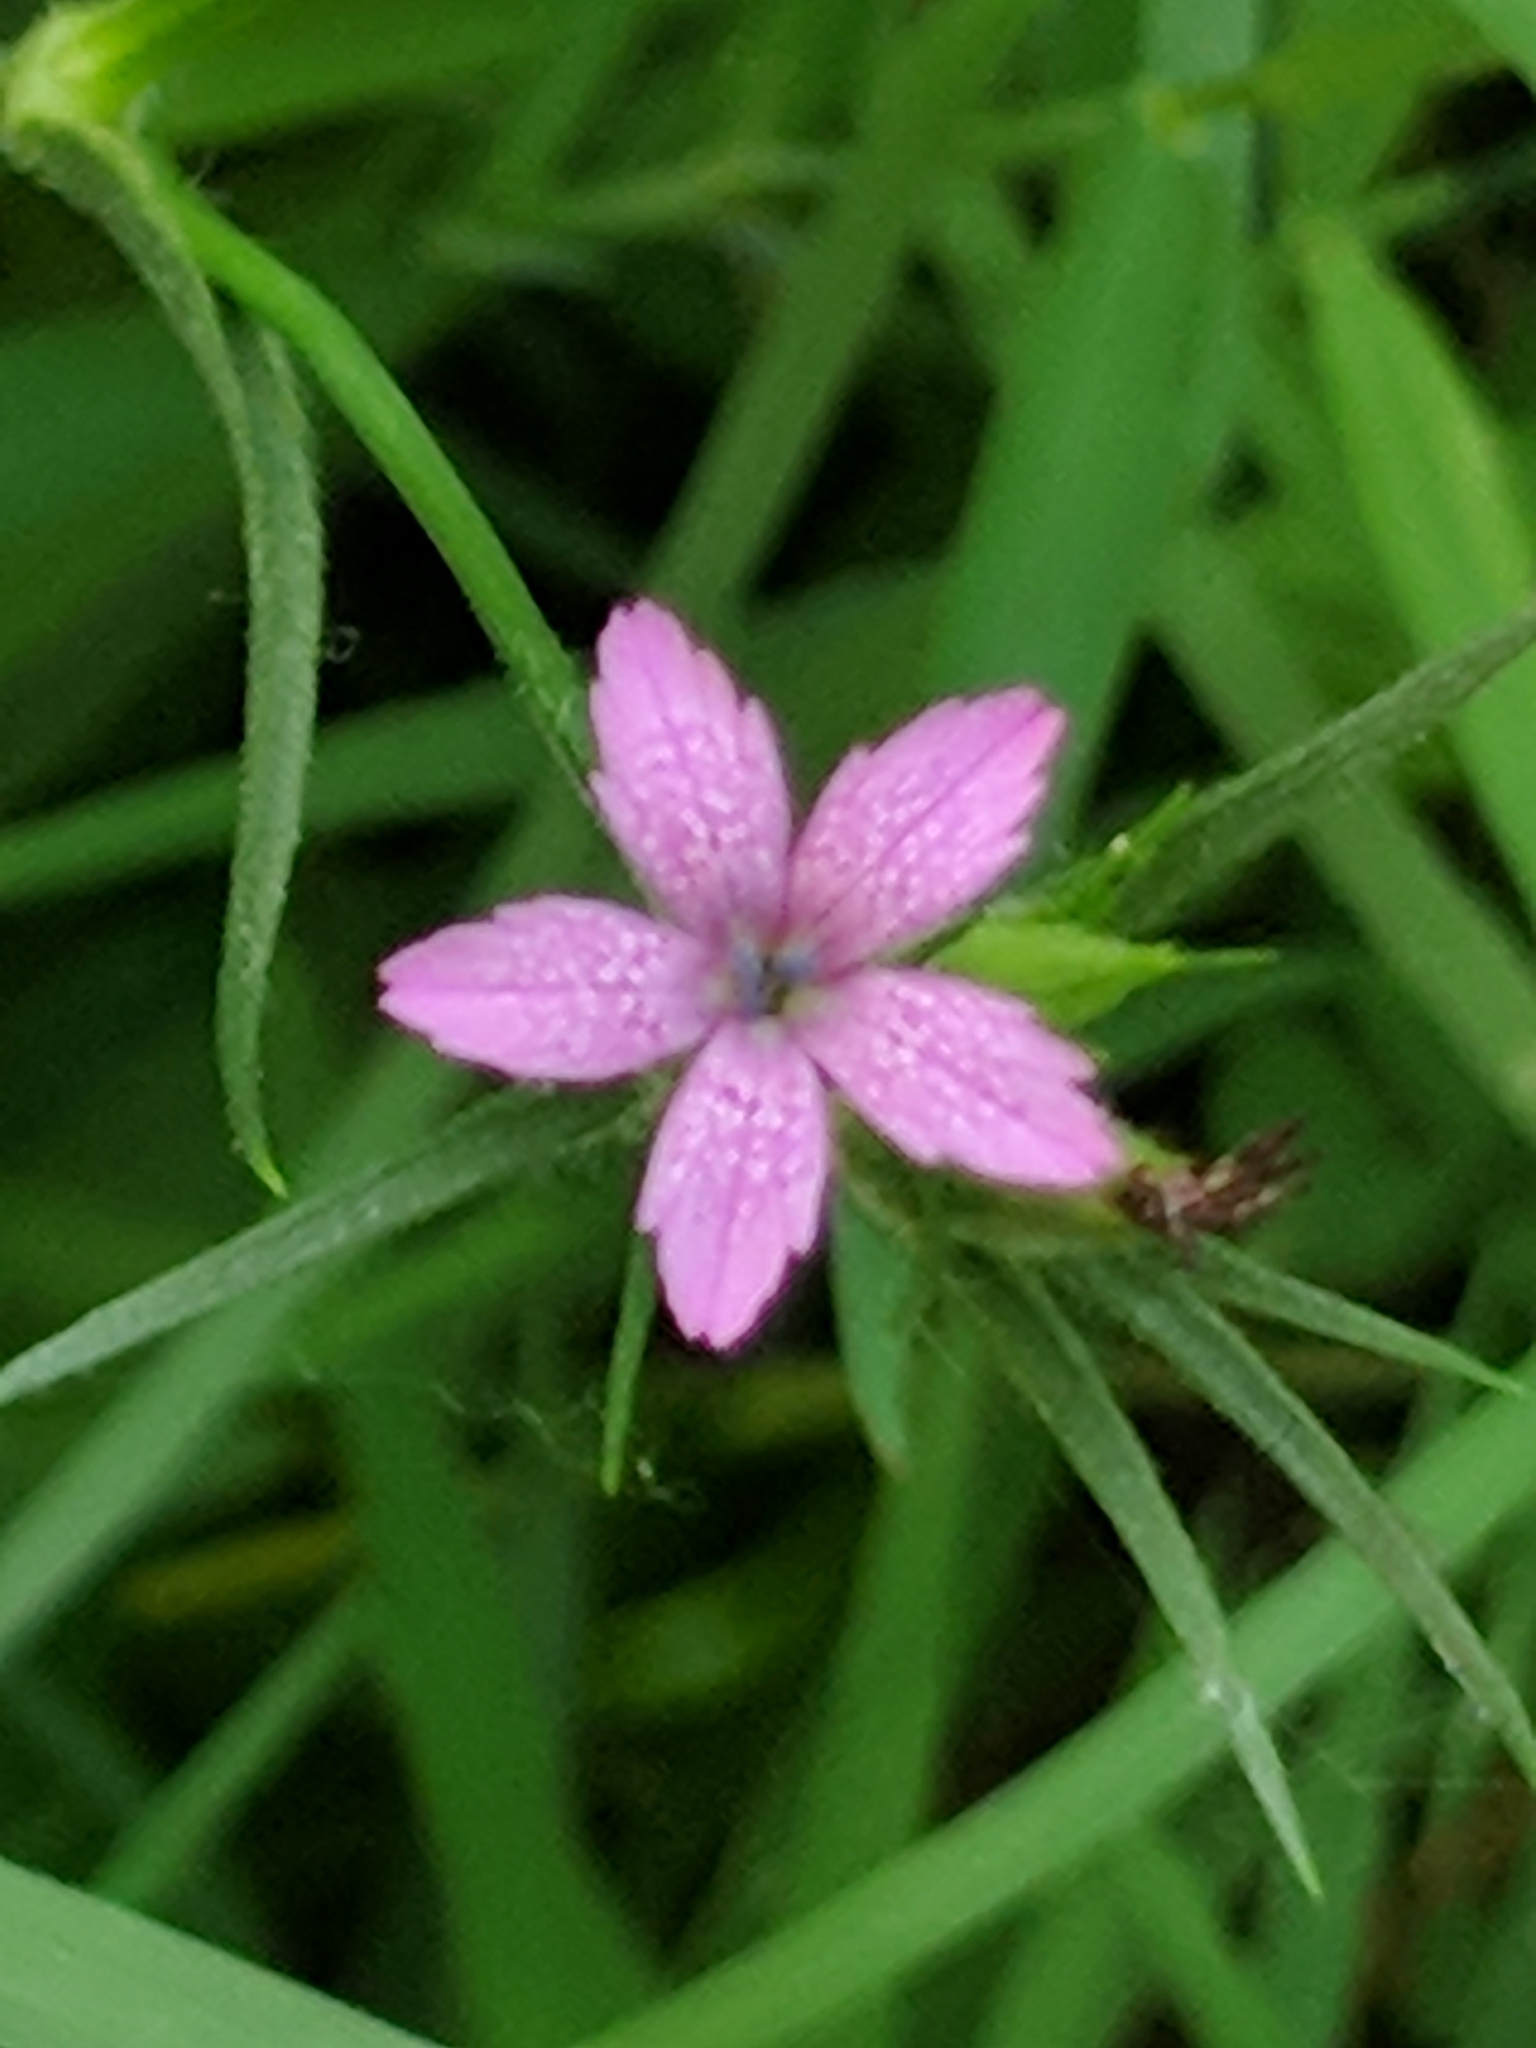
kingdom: Plantae
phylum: Tracheophyta
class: Magnoliopsida
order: Caryophyllales
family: Caryophyllaceae
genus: Dianthus
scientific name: Dianthus armeria
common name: Deptford pink
